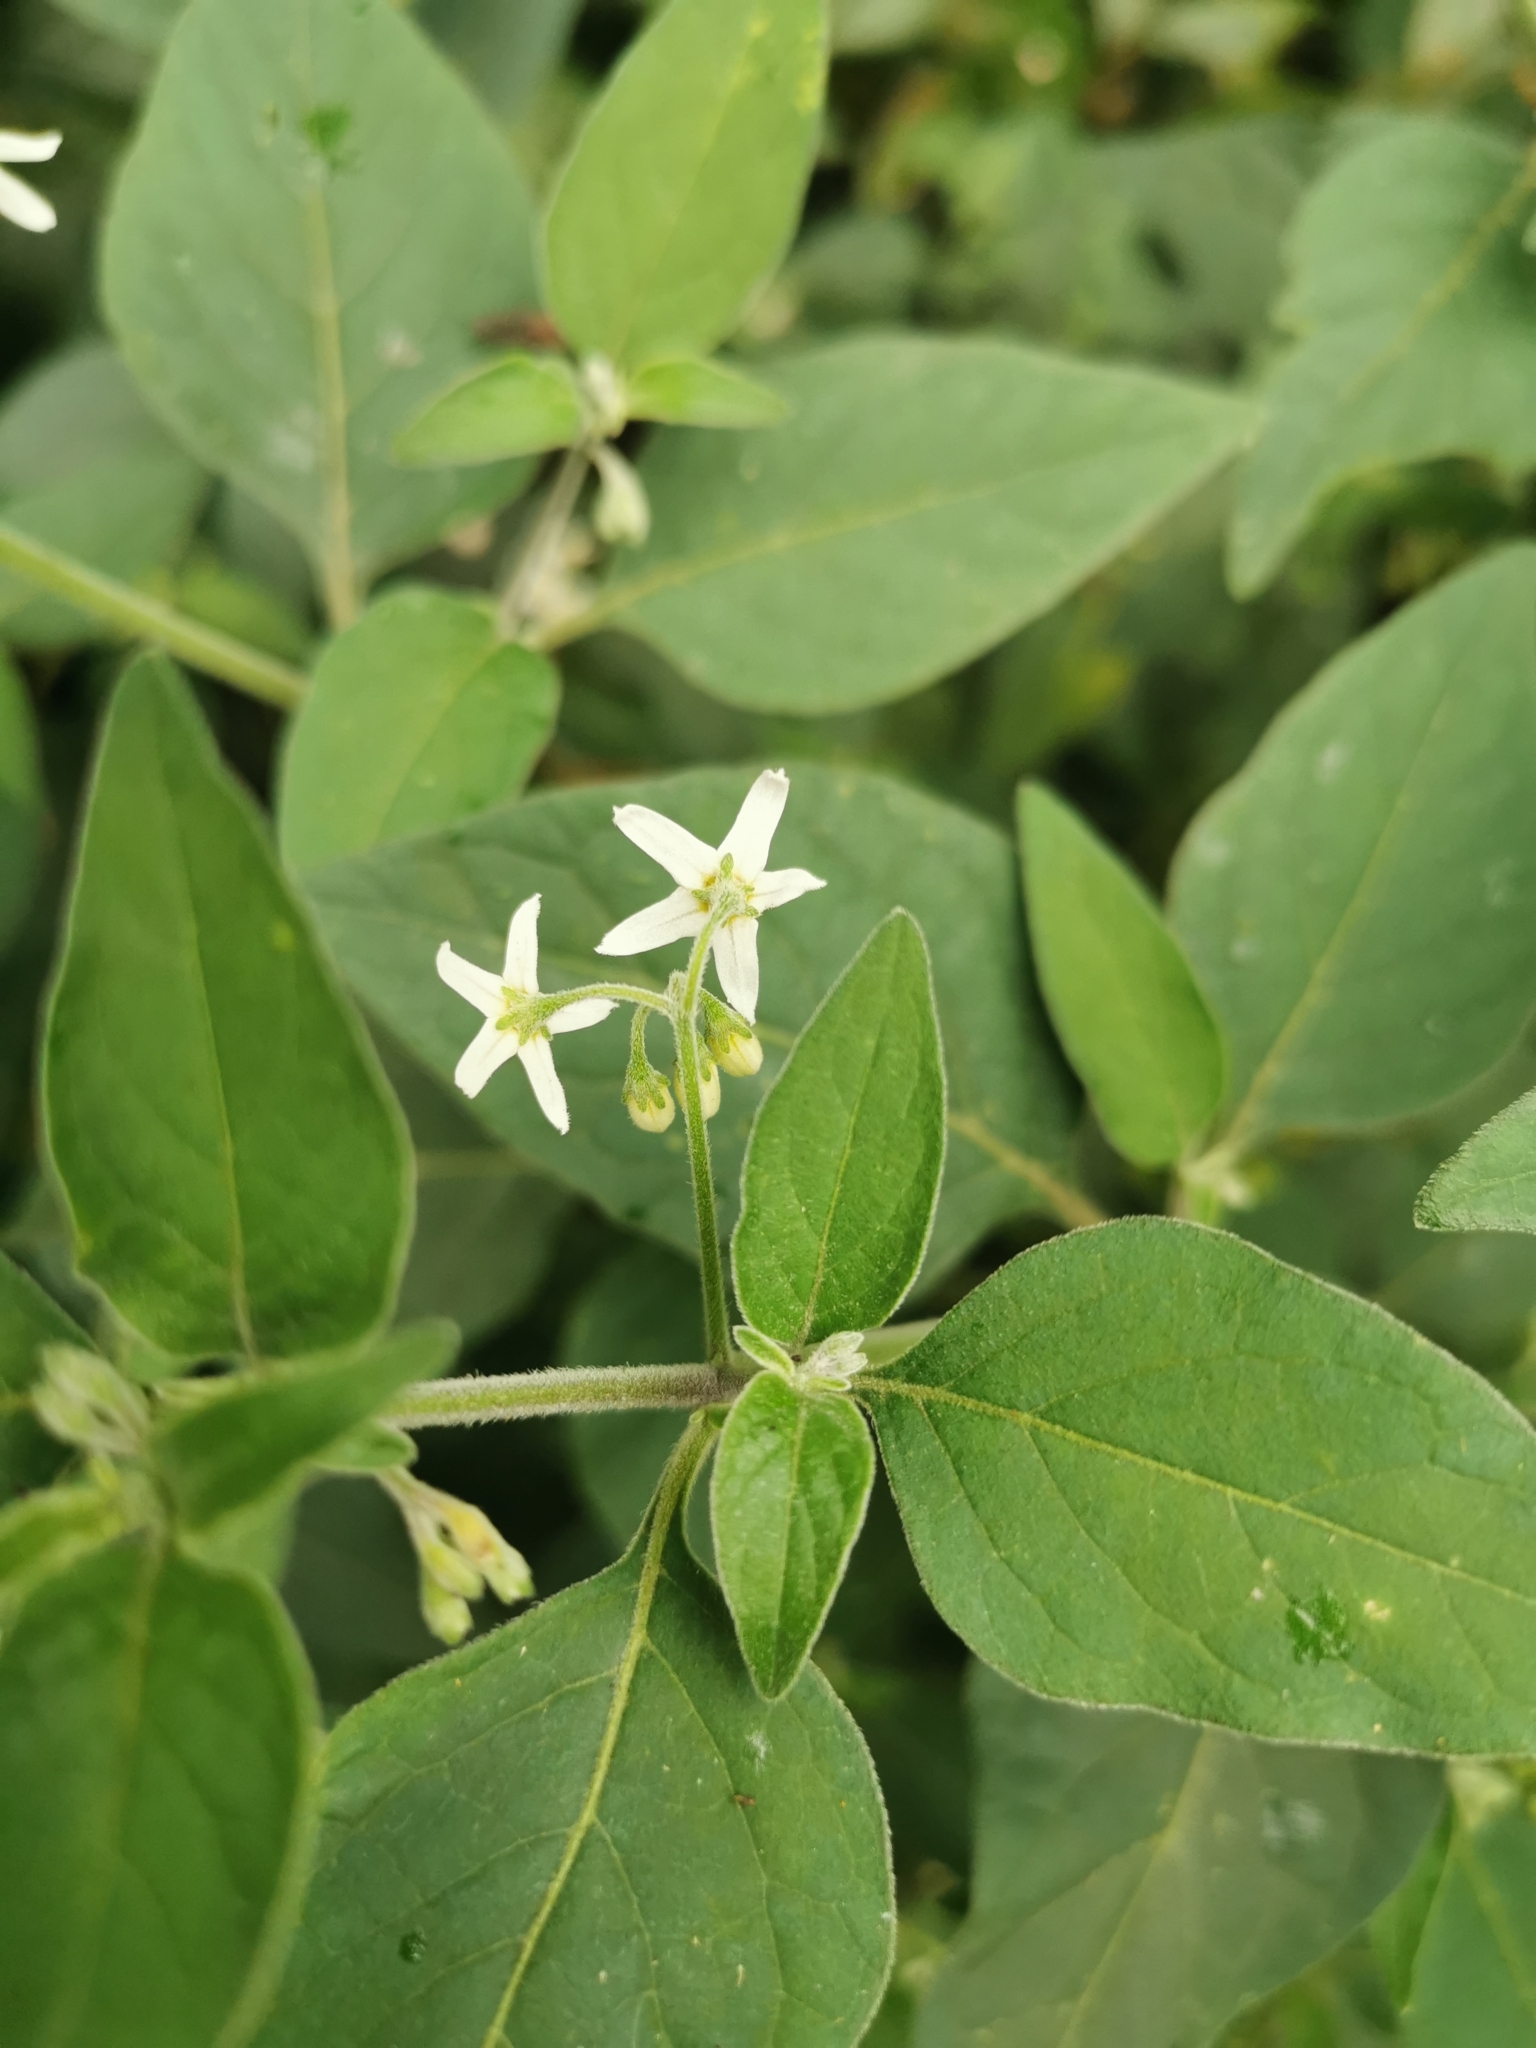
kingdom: Plantae
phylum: Tracheophyta
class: Magnoliopsida
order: Solanales
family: Solanaceae
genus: Solanum
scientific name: Solanum chenopodioides
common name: Tall nightshade
